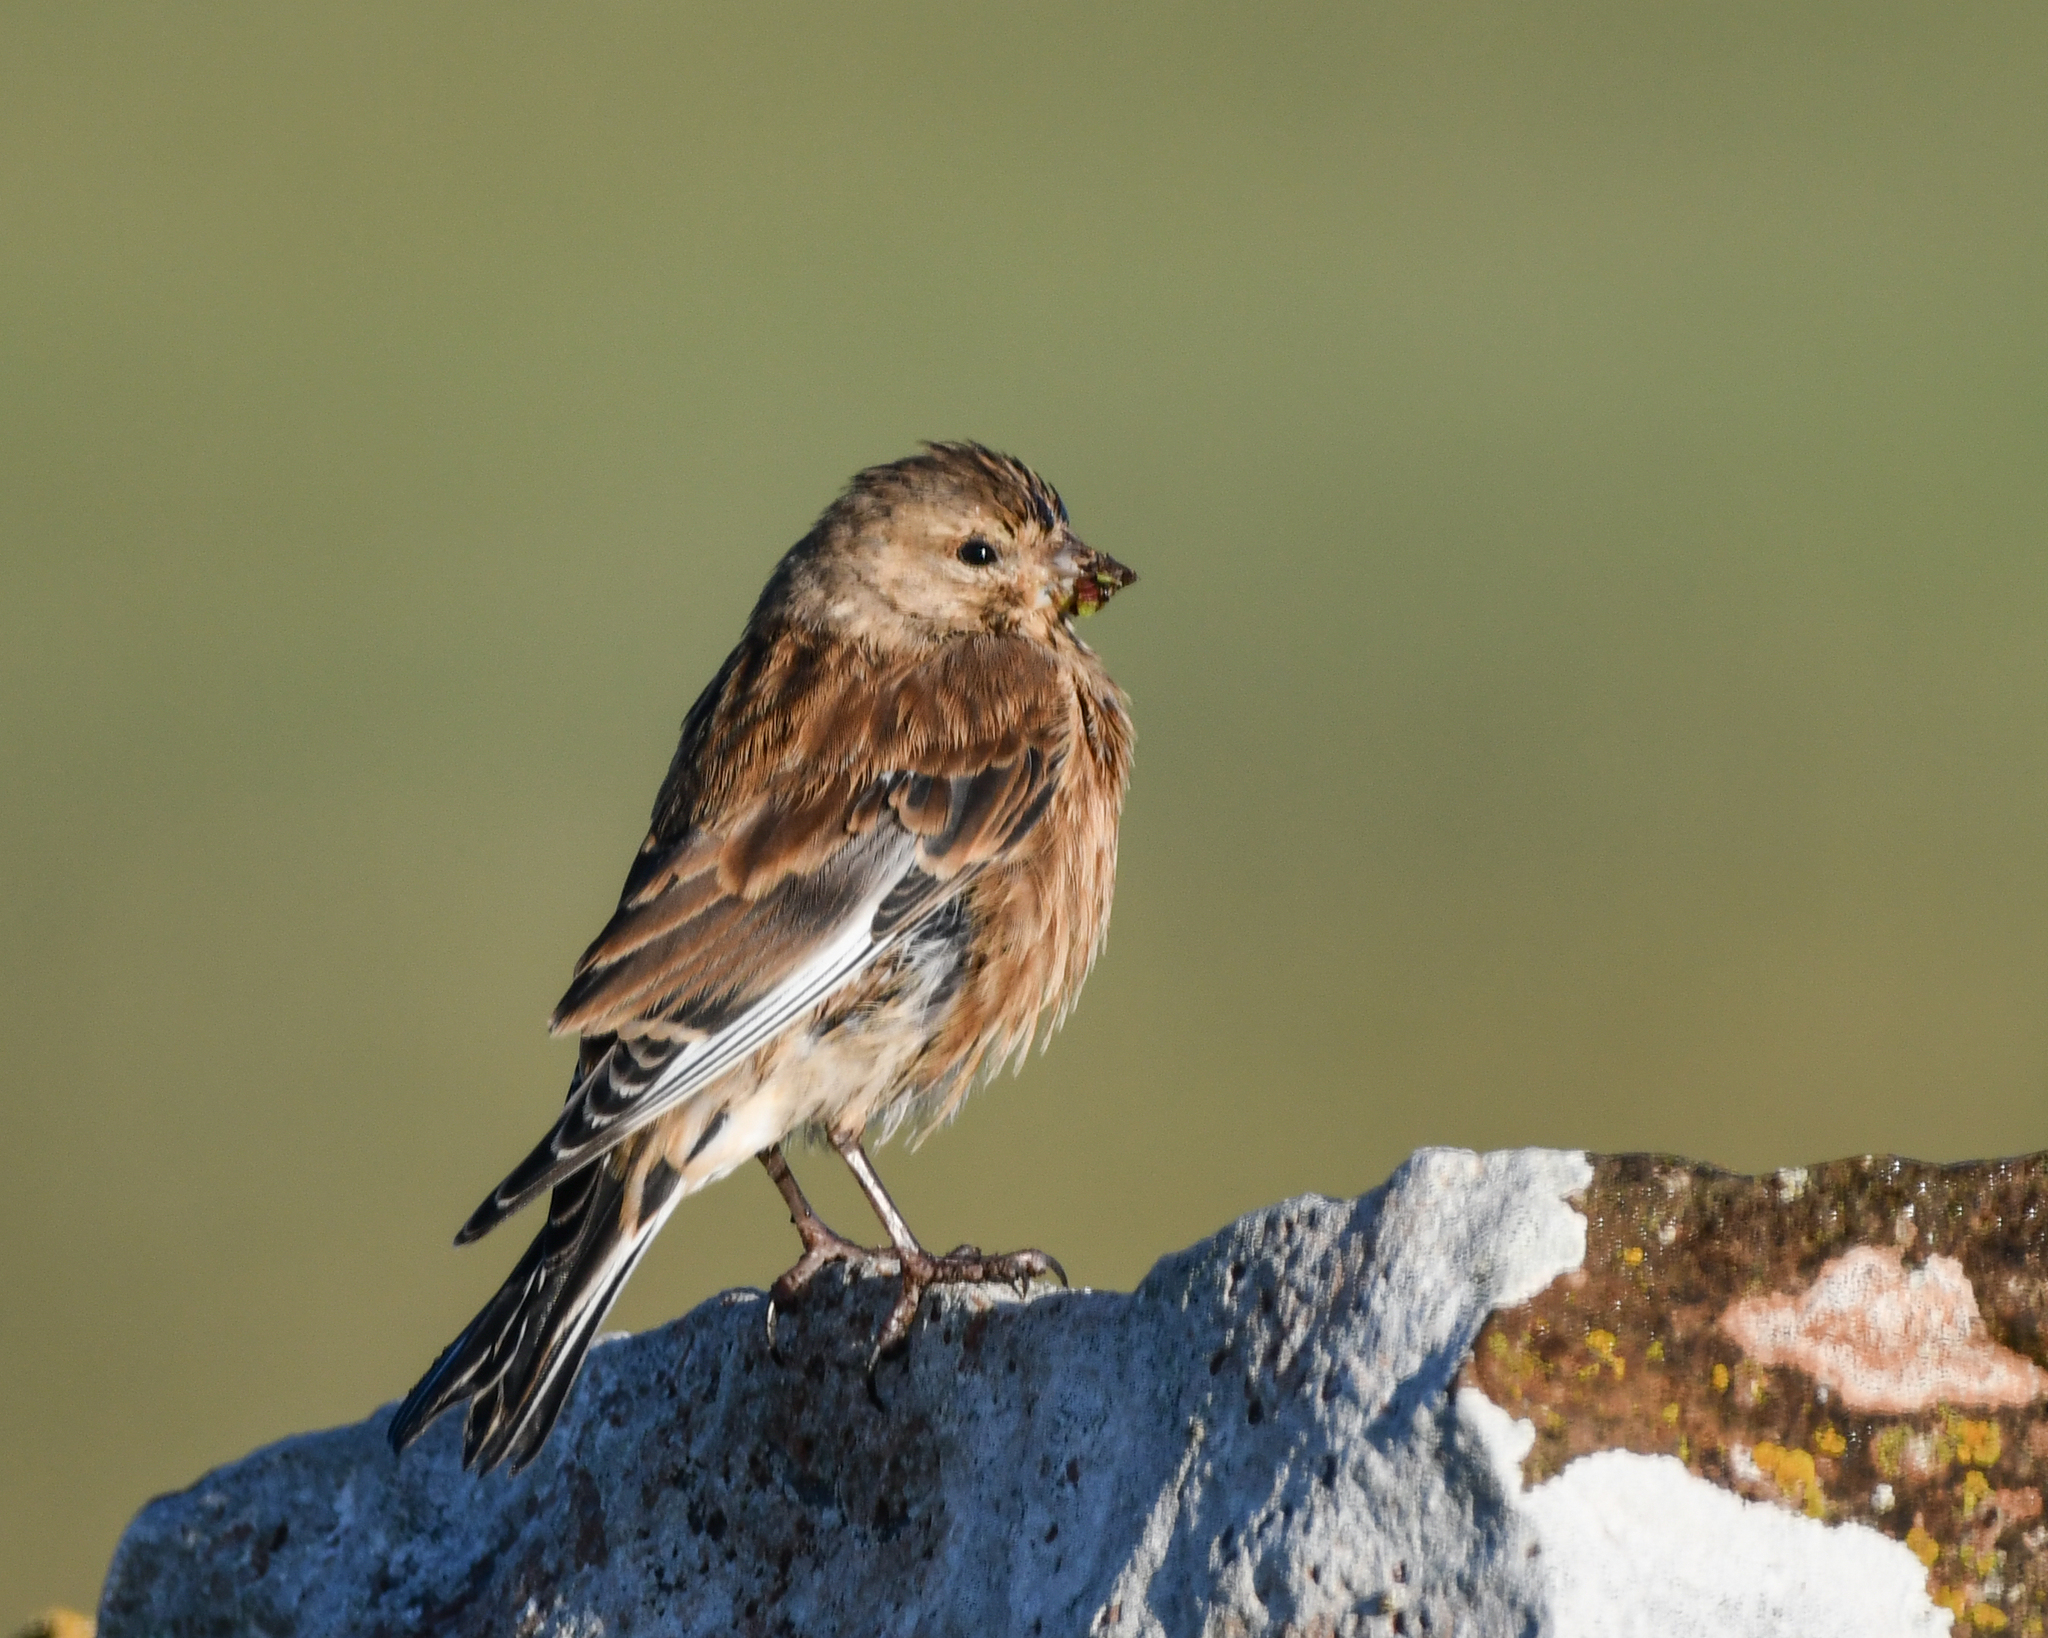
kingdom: Animalia
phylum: Chordata
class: Aves
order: Passeriformes
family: Fringillidae
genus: Linaria
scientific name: Linaria cannabina
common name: Common linnet
